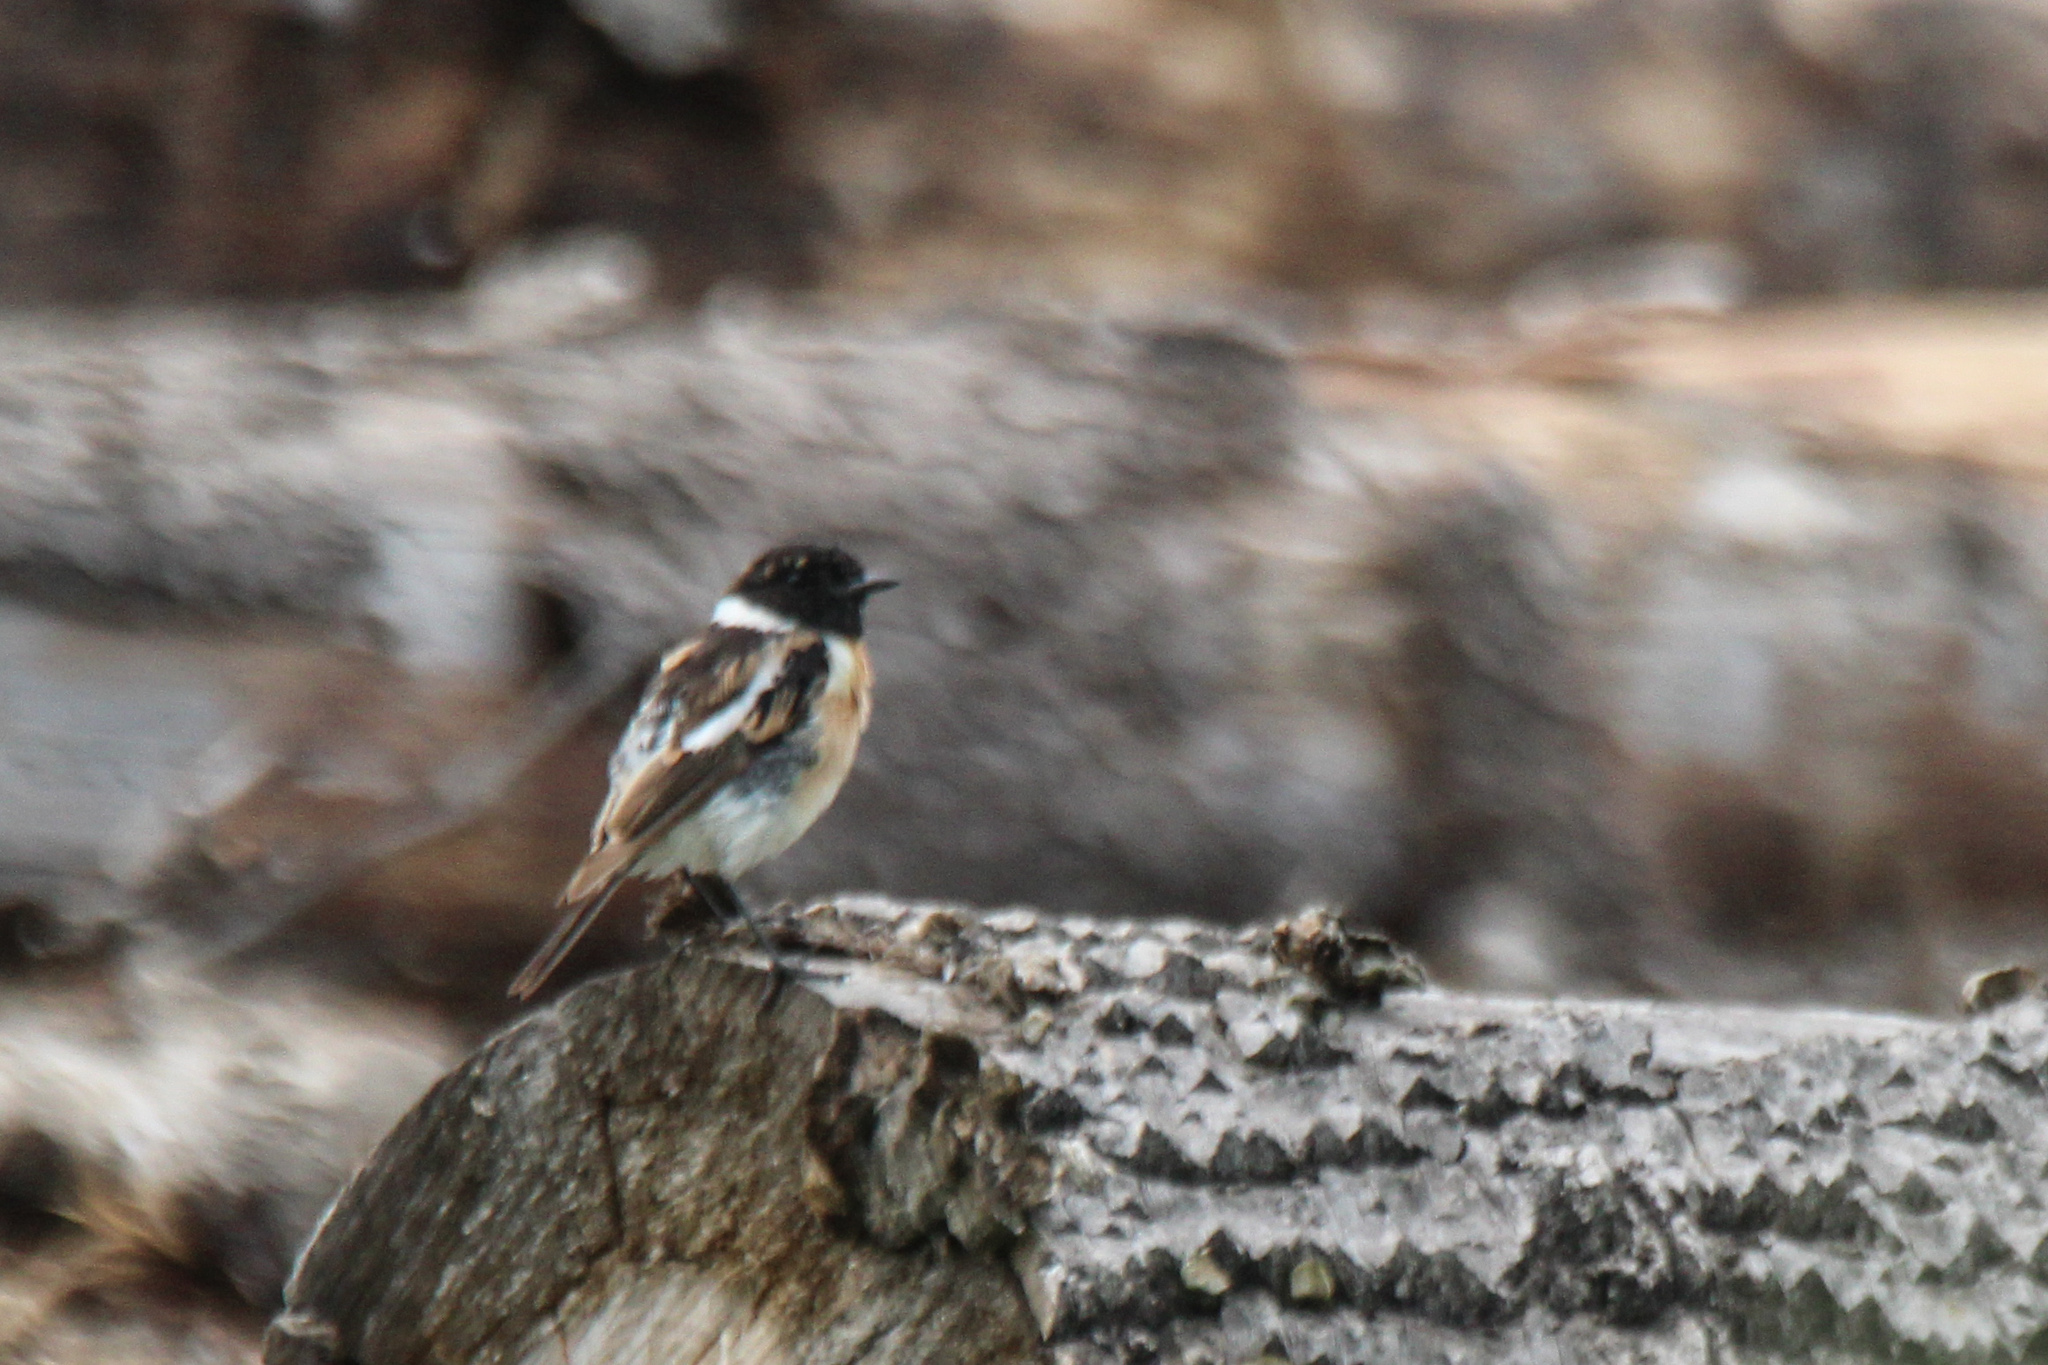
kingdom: Animalia
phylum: Chordata
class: Aves
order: Passeriformes
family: Muscicapidae
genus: Saxicola
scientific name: Saxicola maurus
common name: Siberian stonechat
